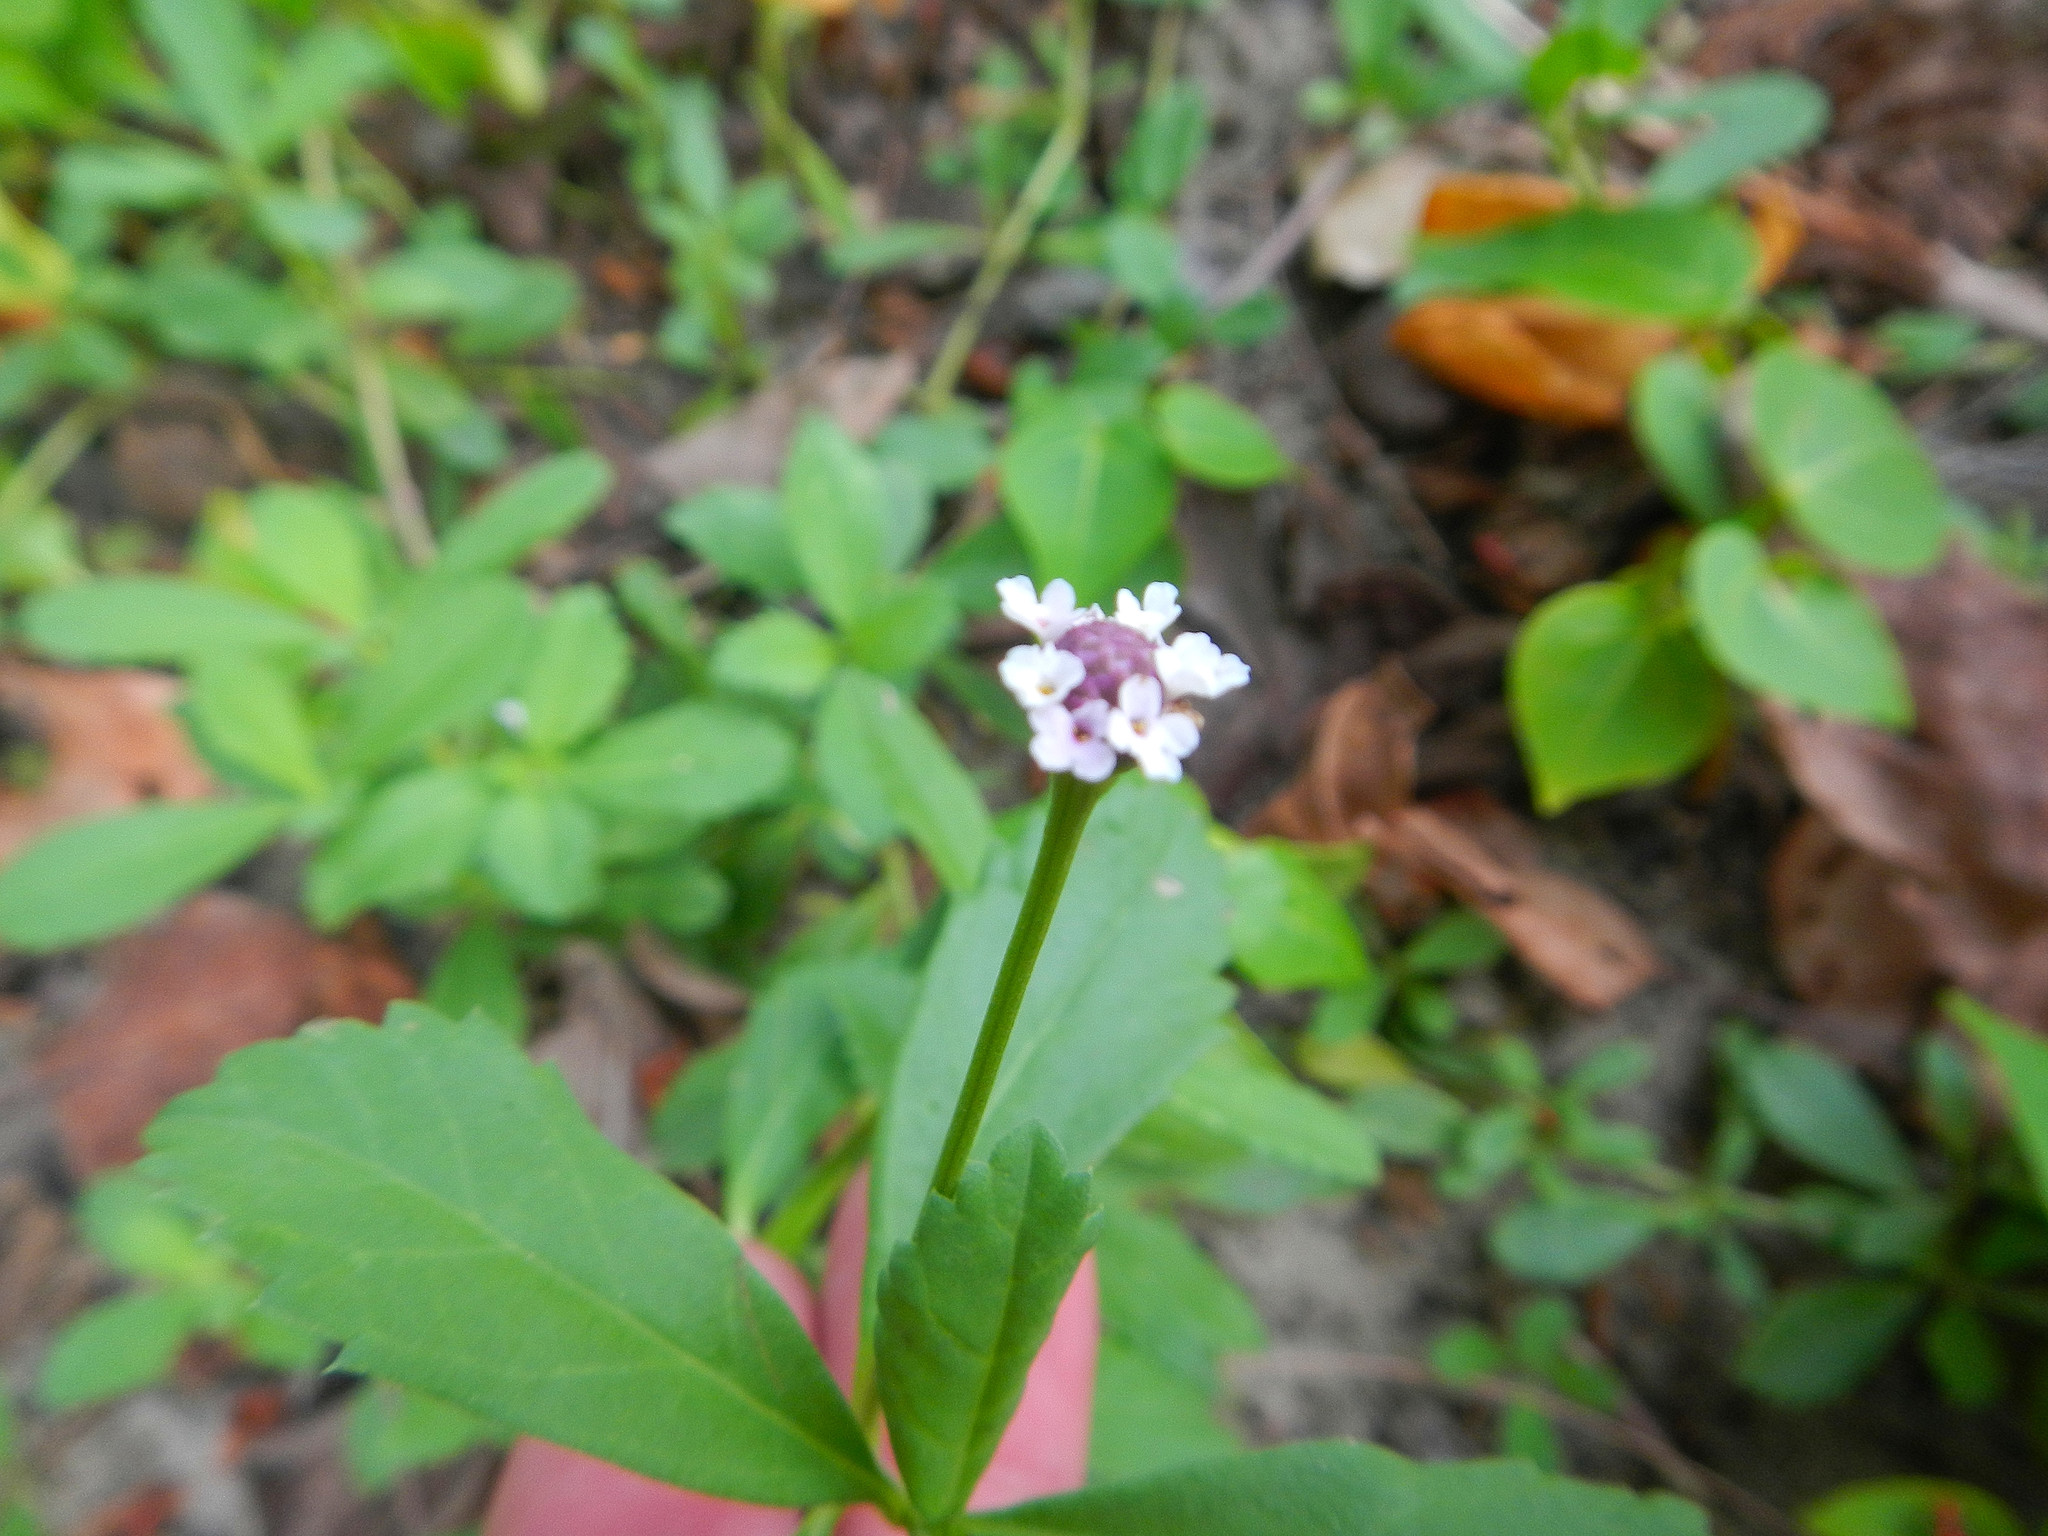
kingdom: Plantae
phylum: Tracheophyta
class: Magnoliopsida
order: Lamiales
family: Verbenaceae
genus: Phyla
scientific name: Phyla nodiflora
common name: Frogfruit
